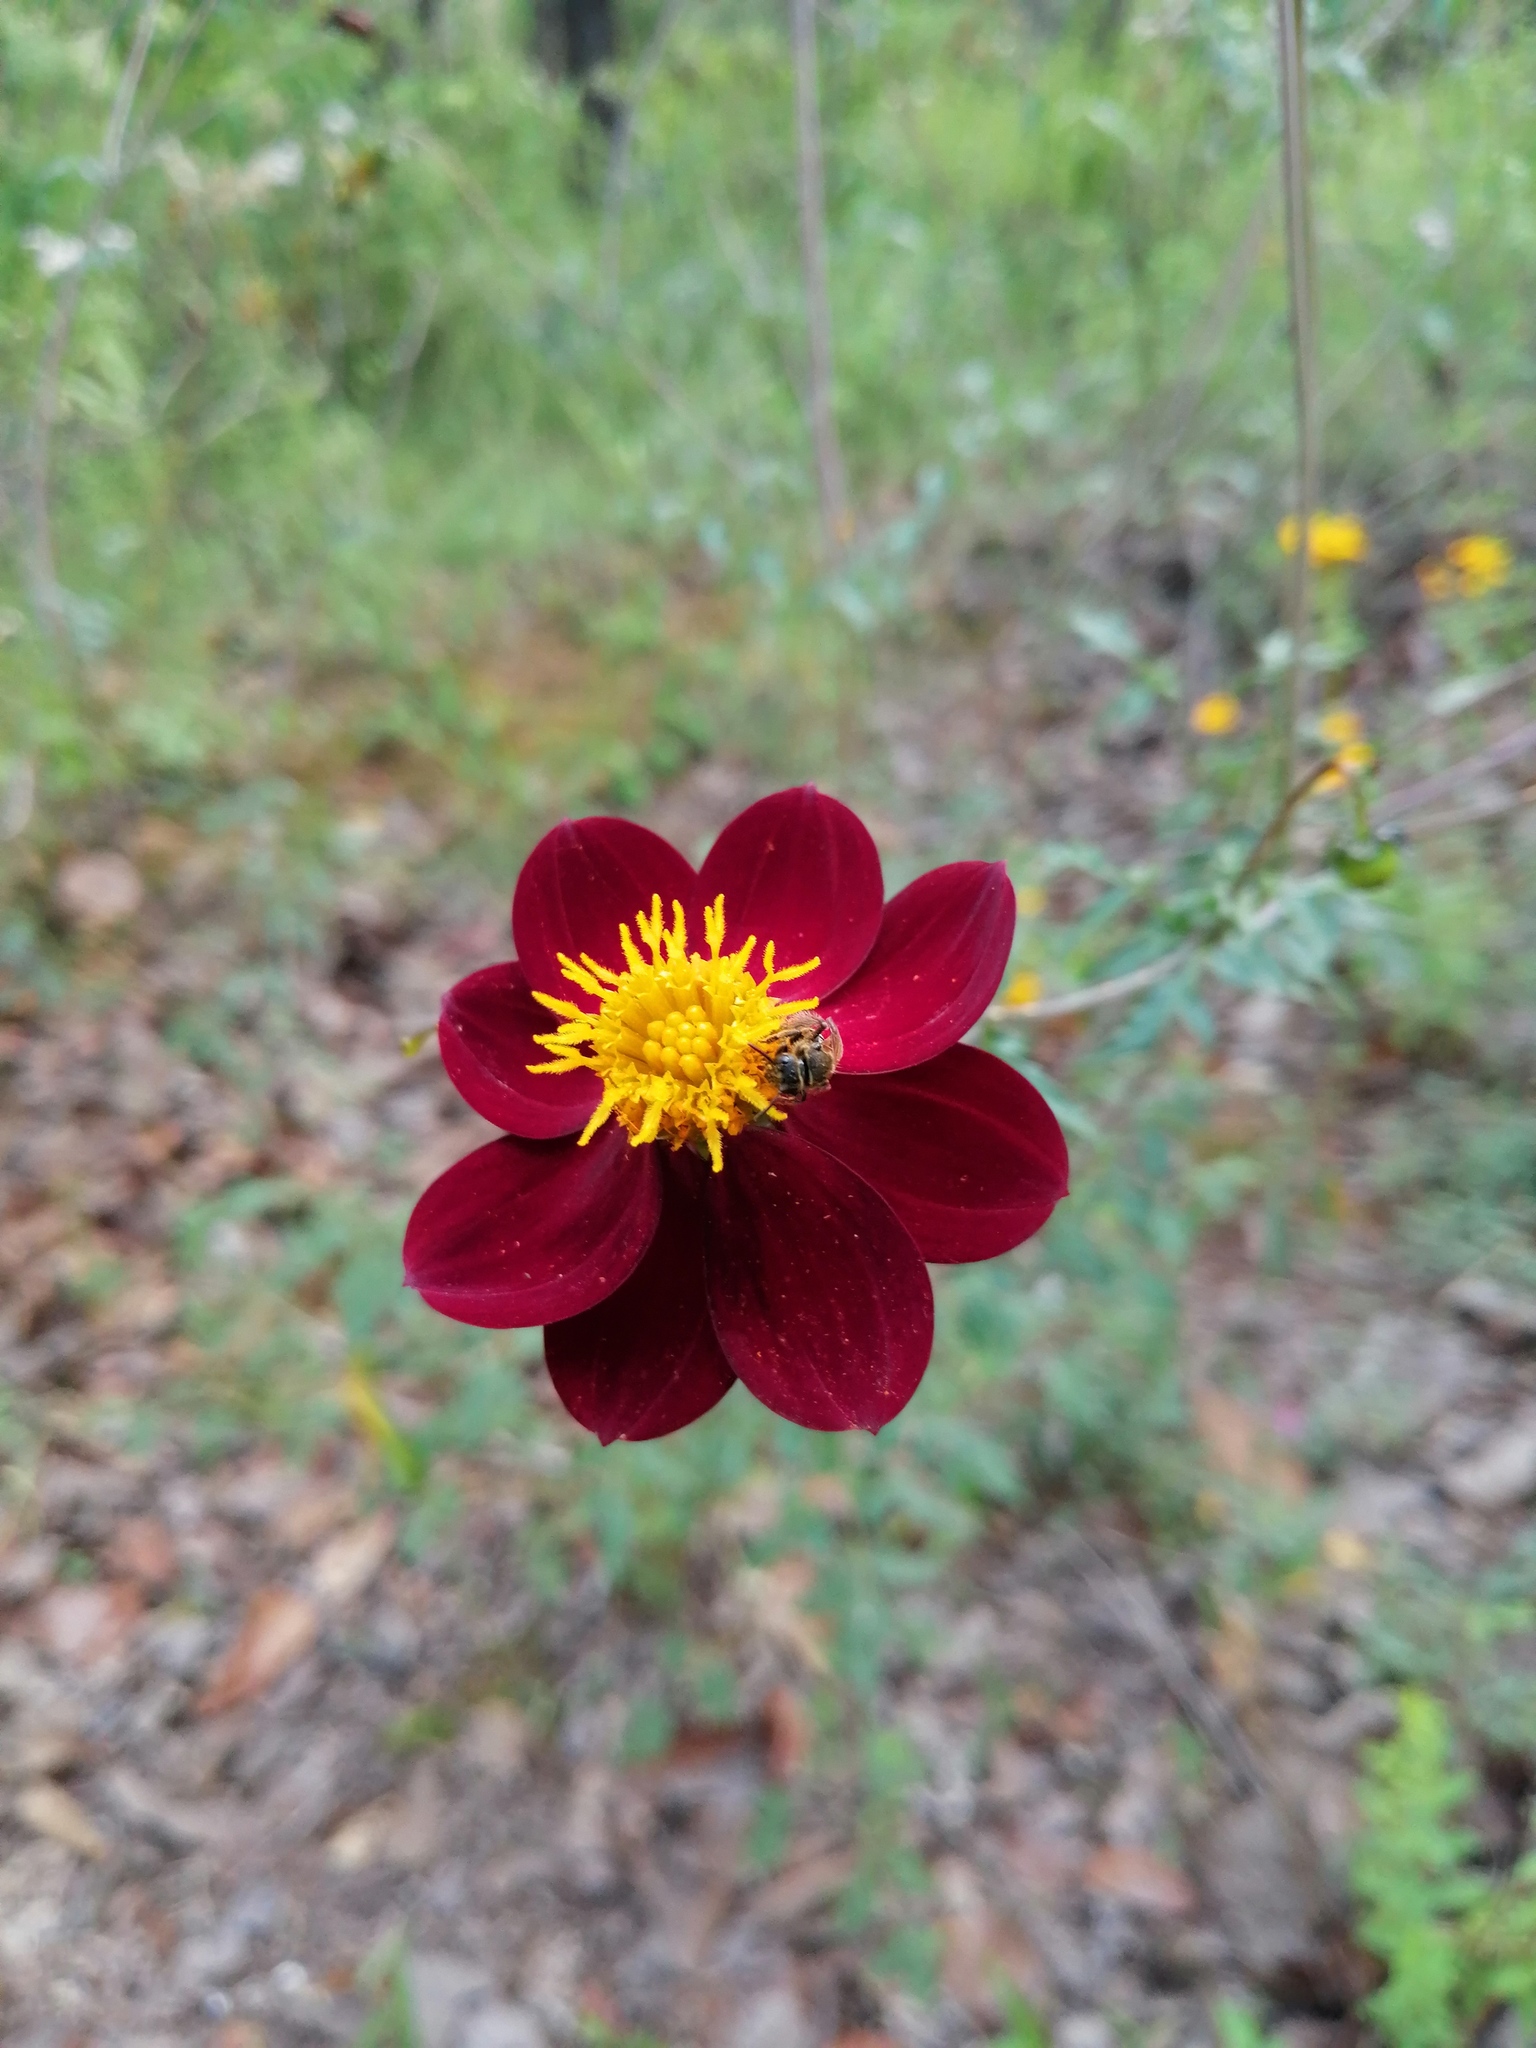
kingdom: Plantae
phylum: Tracheophyta
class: Magnoliopsida
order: Asterales
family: Asteraceae
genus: Dahlia
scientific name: Dahlia coccinea
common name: Red dahlia
